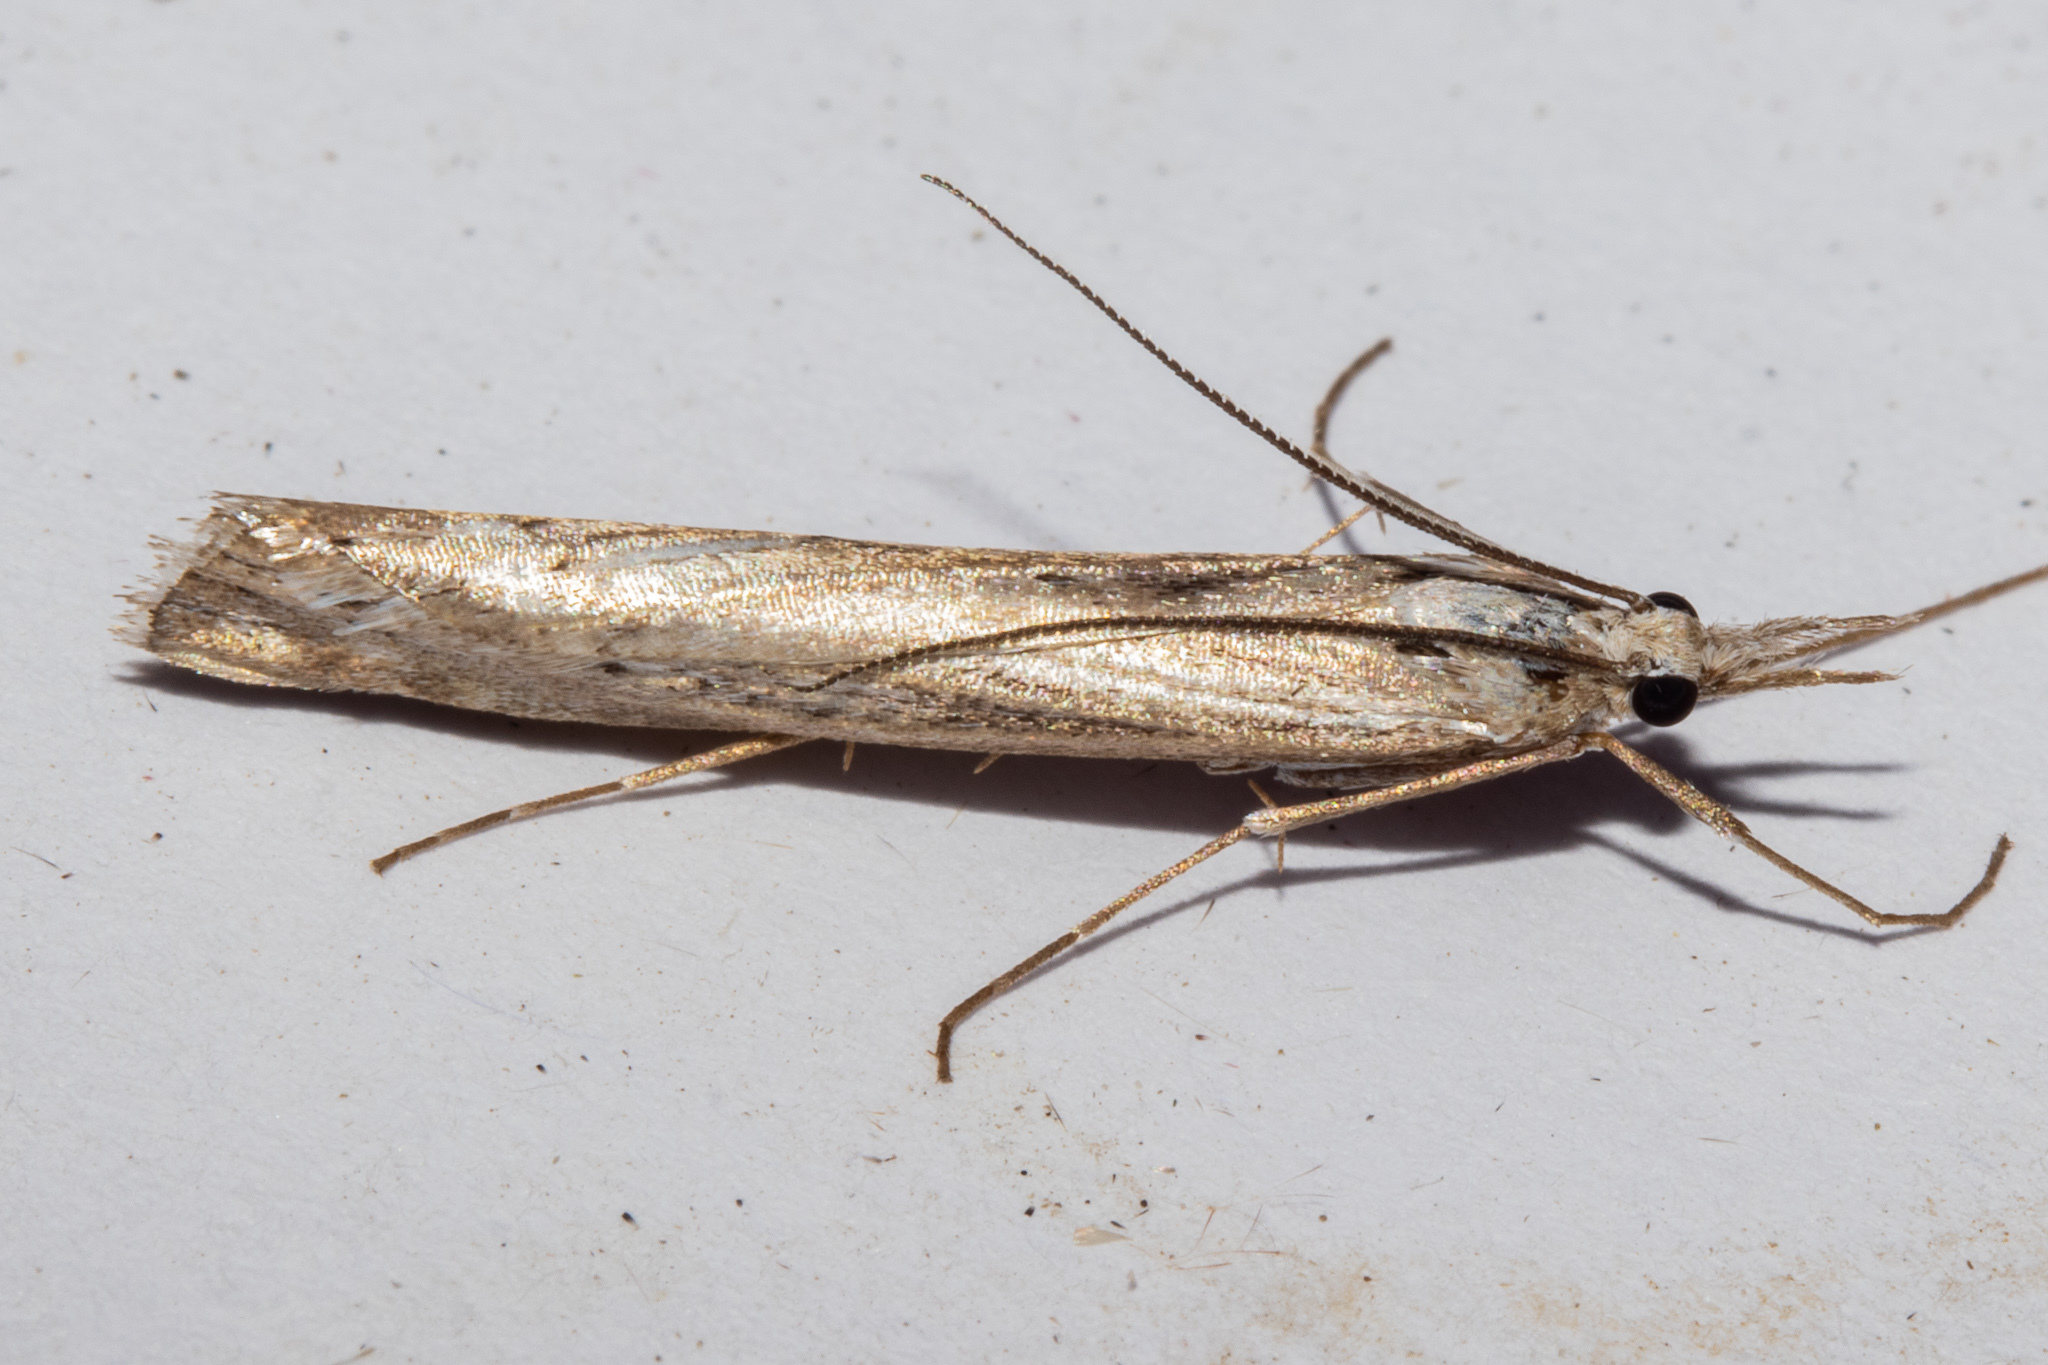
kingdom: Animalia
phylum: Arthropoda
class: Insecta
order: Lepidoptera
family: Crambidae
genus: Orocrambus
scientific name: Orocrambus cyclopicus
